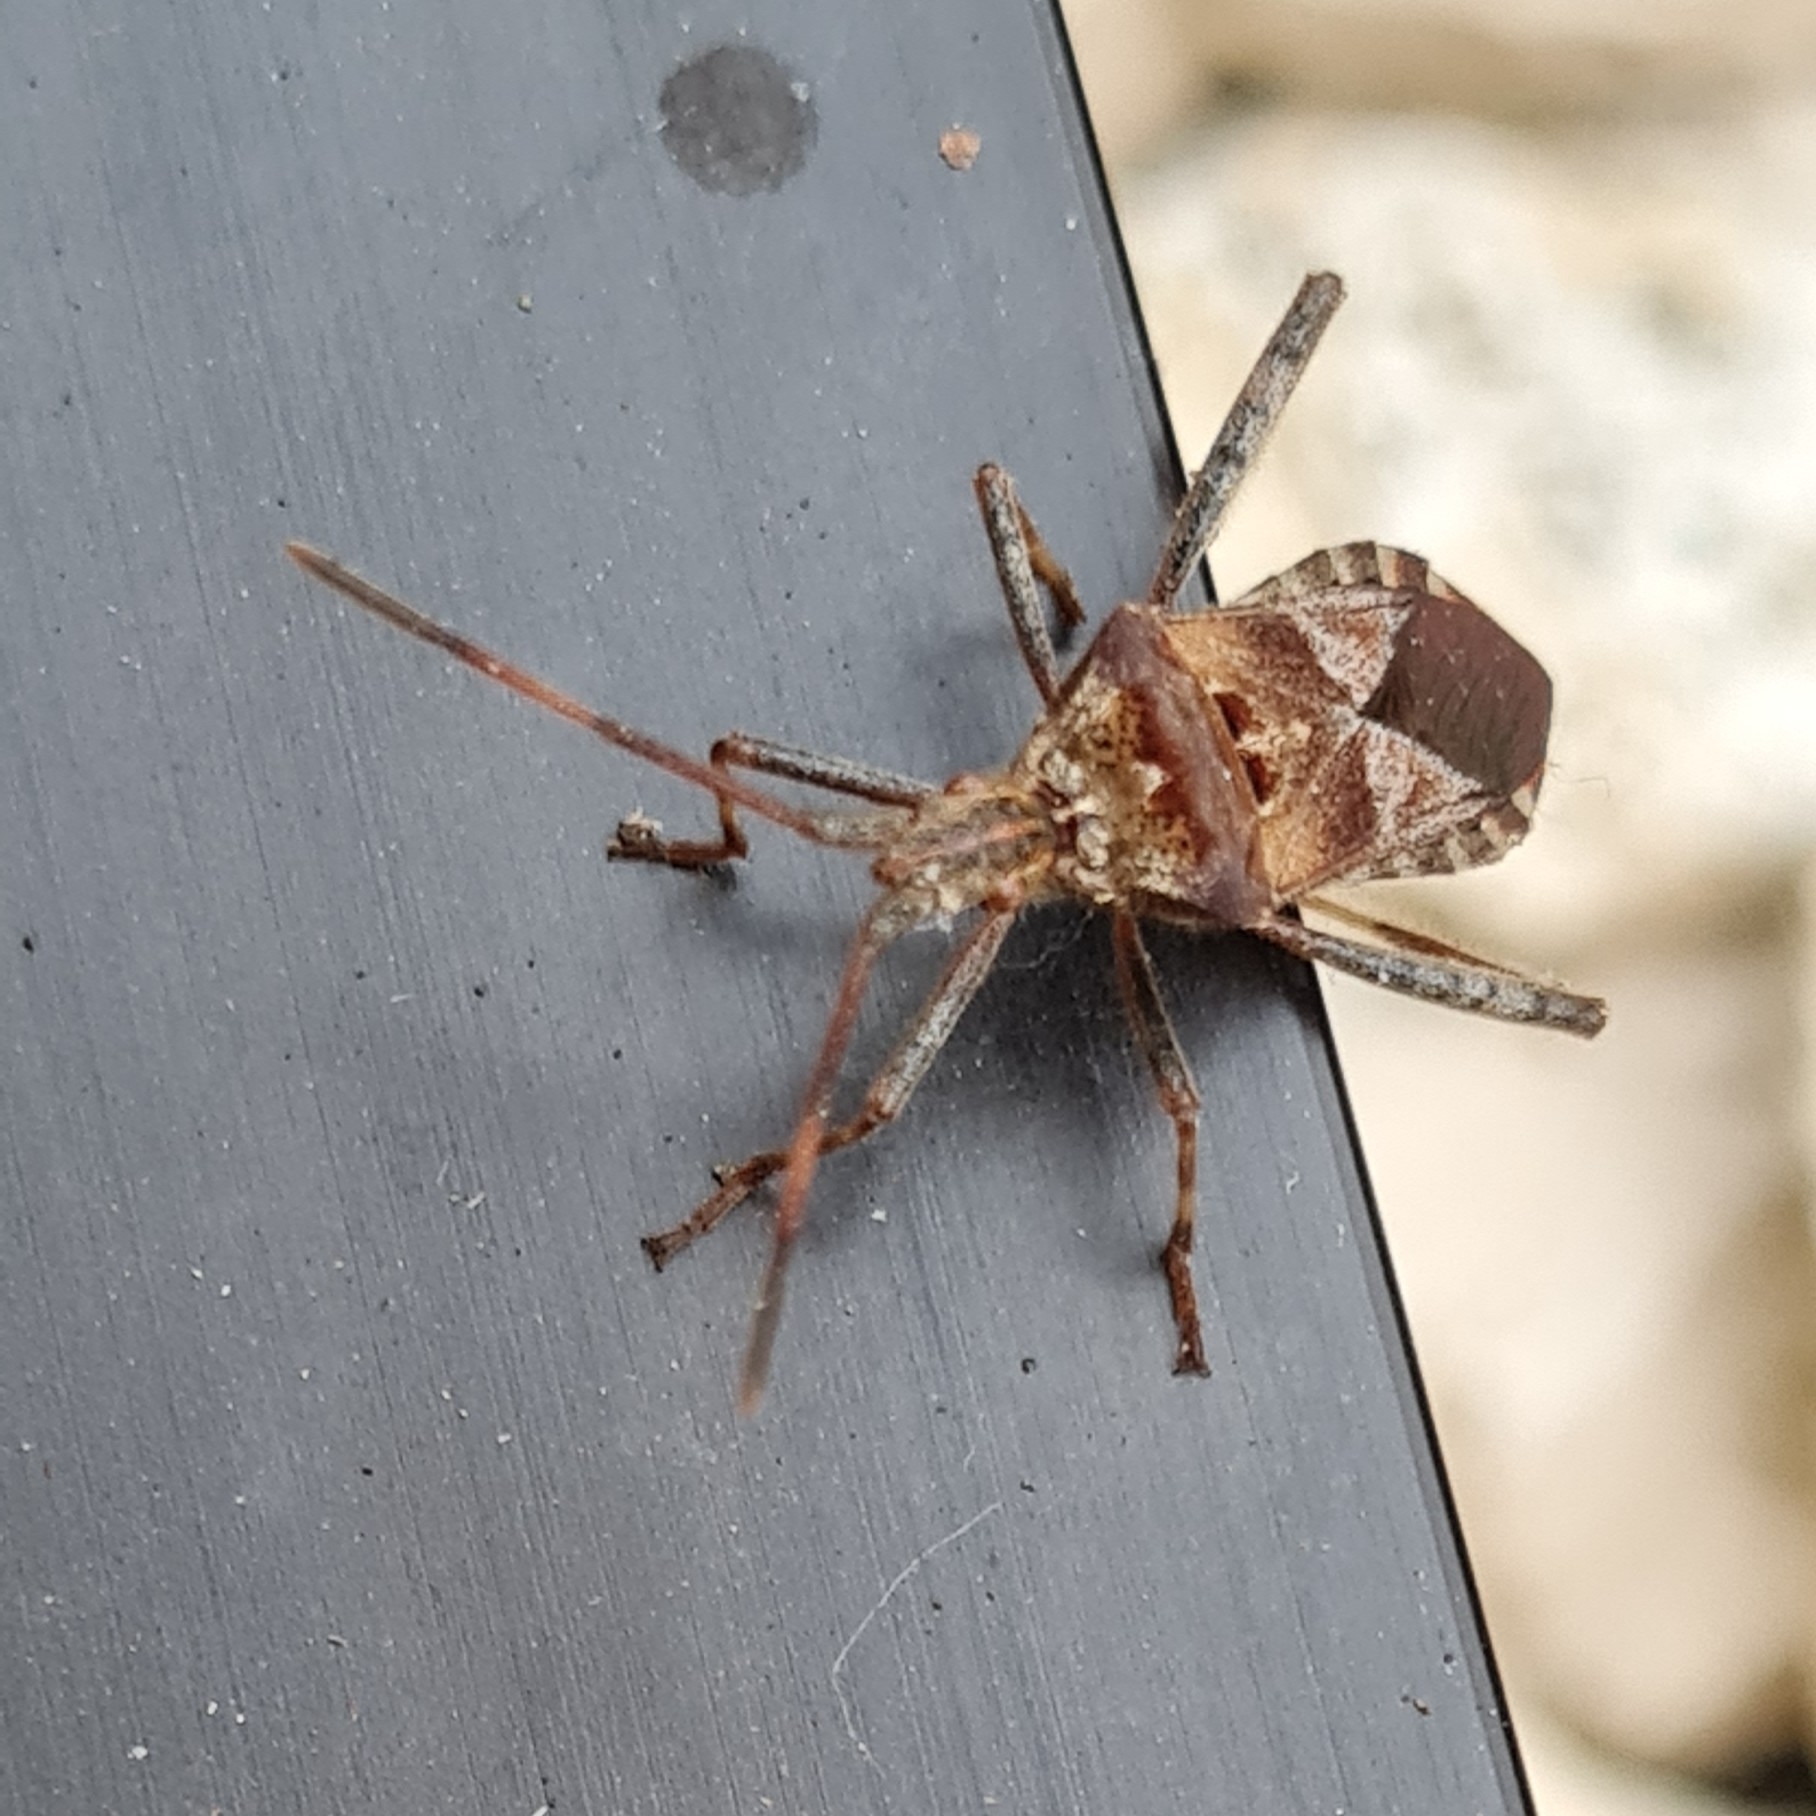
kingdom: Animalia
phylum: Arthropoda
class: Insecta
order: Hemiptera
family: Coreidae
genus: Leptoglossus
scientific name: Leptoglossus occidentalis
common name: Western conifer-seed bug
